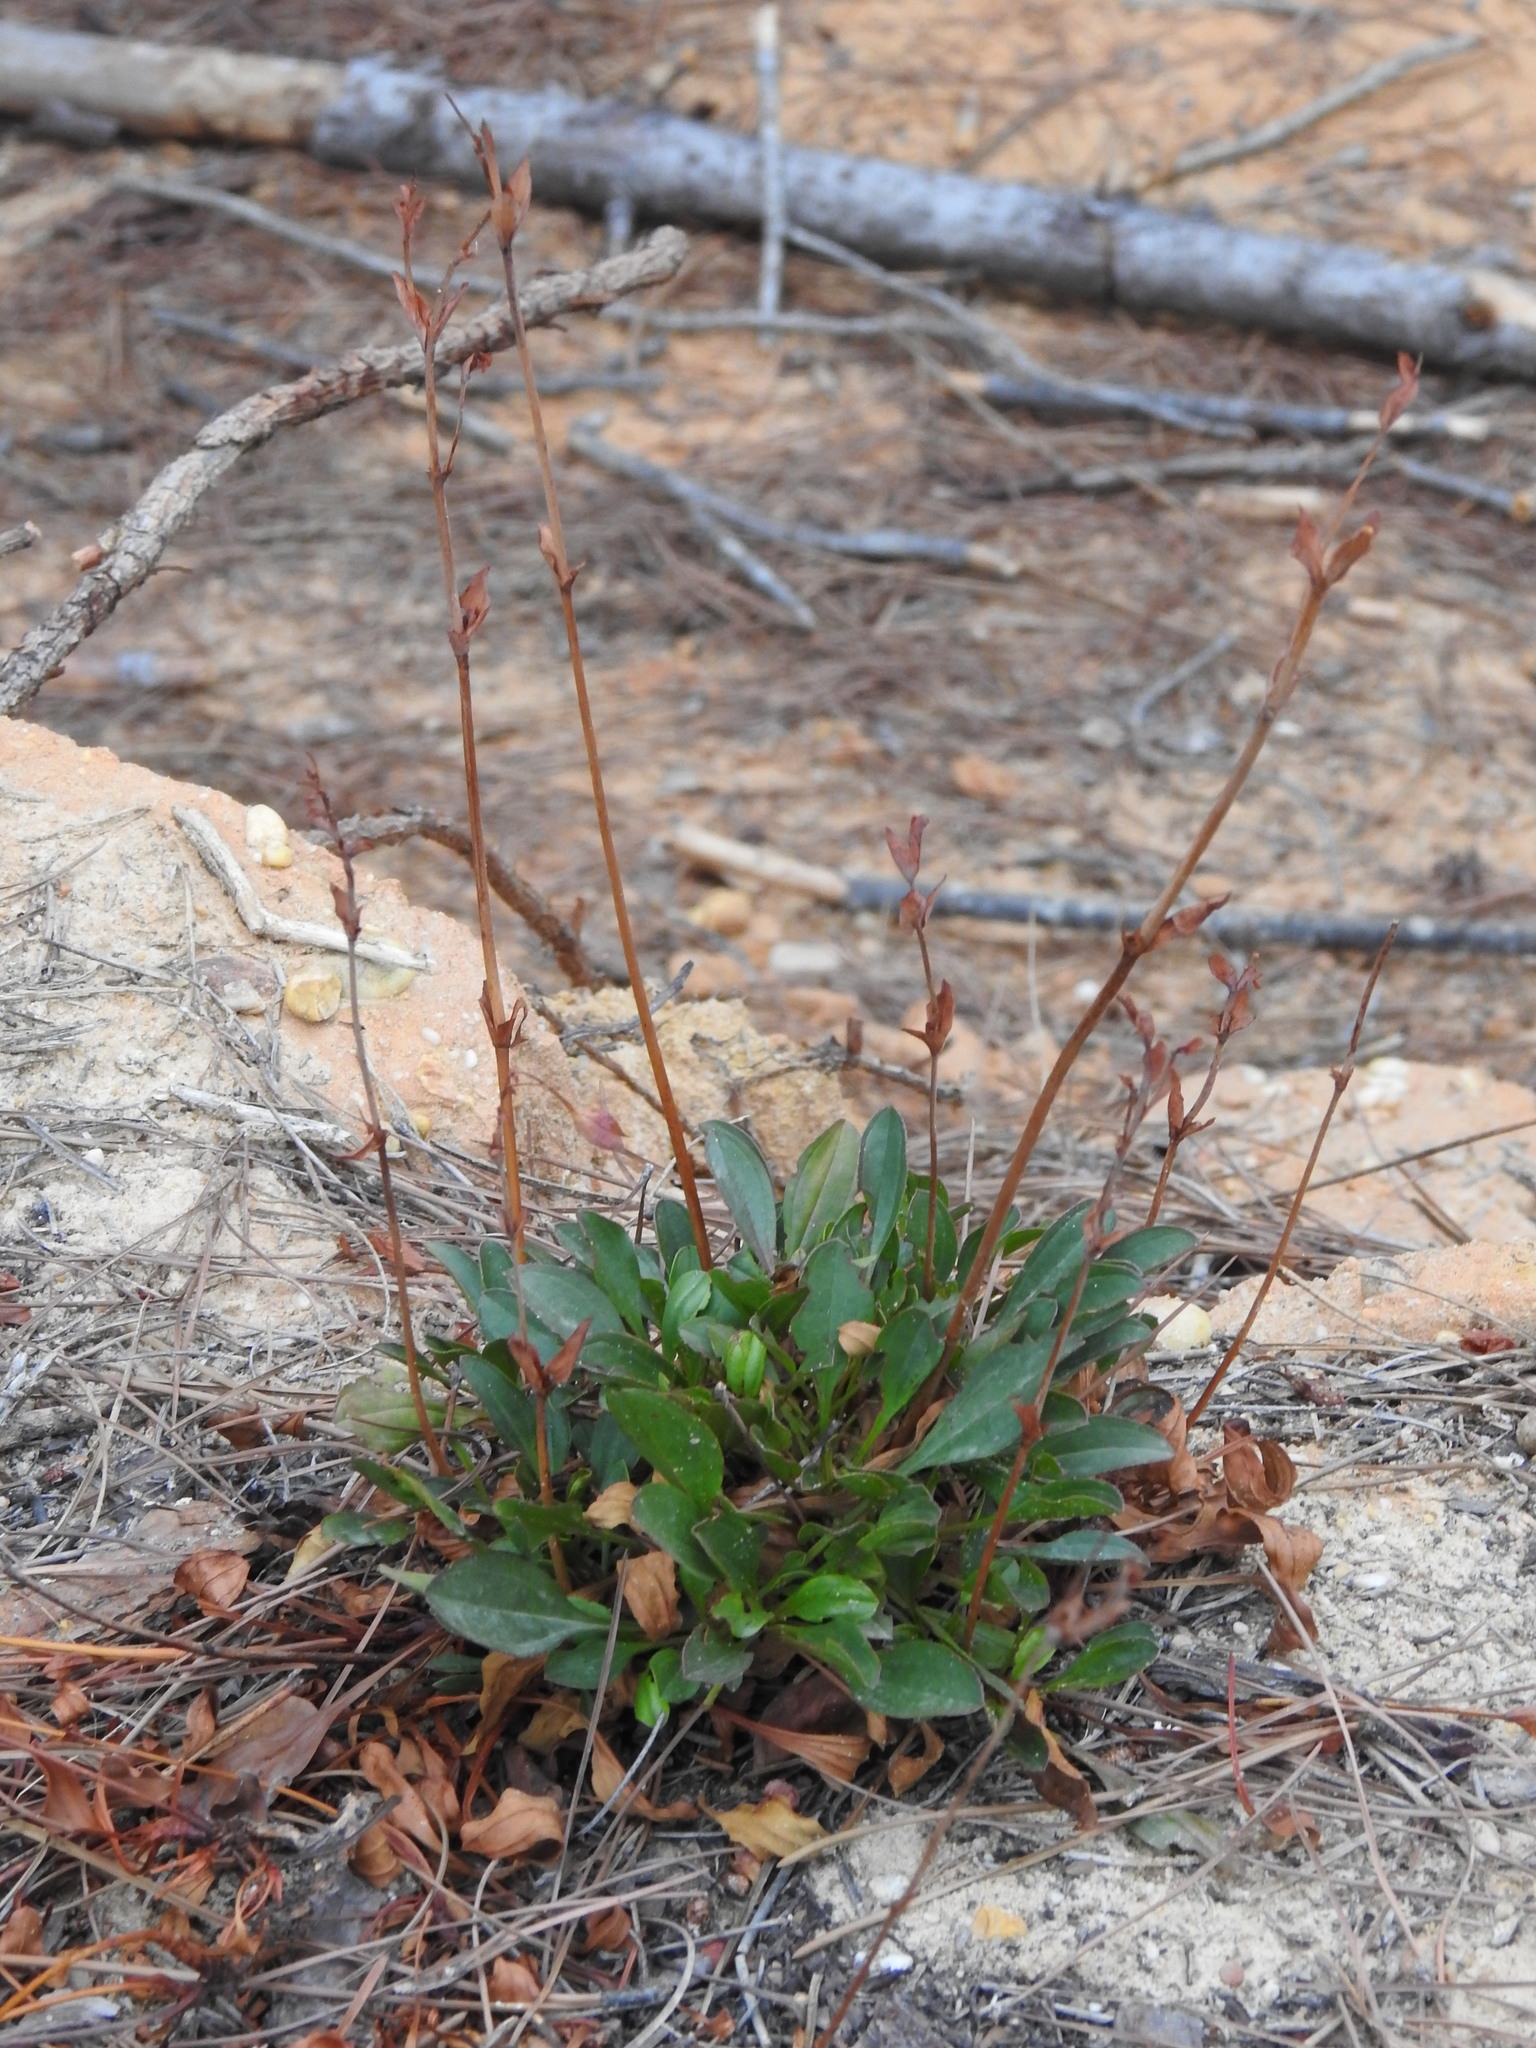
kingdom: Plantae
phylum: Tracheophyta
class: Magnoliopsida
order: Malvales
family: Cistaceae
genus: Tuberaria
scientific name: Tuberaria globulariifolia
